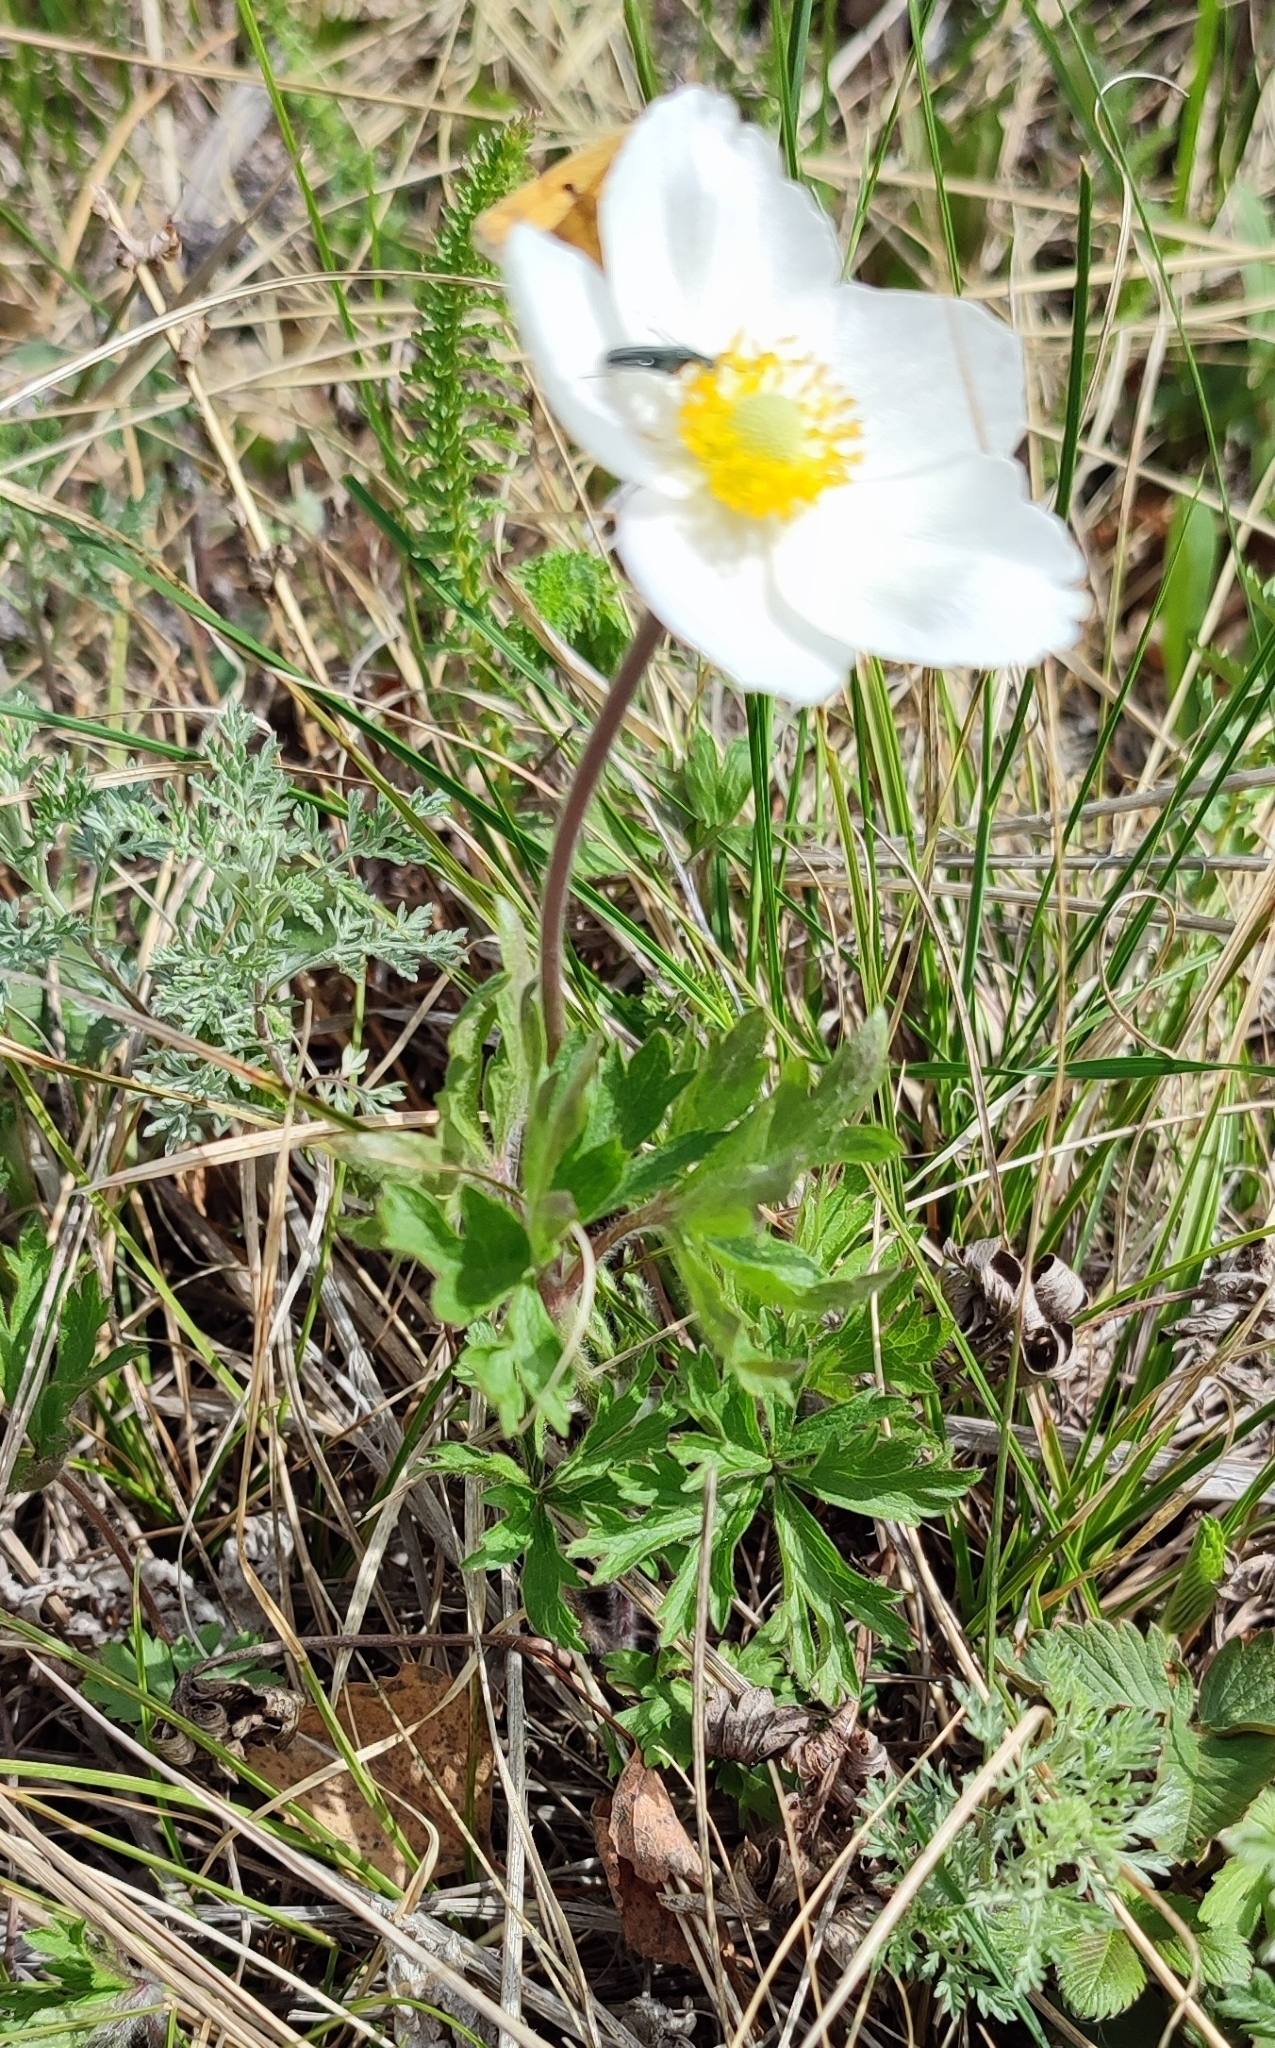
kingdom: Plantae
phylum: Tracheophyta
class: Magnoliopsida
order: Ranunculales
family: Ranunculaceae
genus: Anemone
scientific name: Anemone sylvestris
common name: Snowdrop anemone
